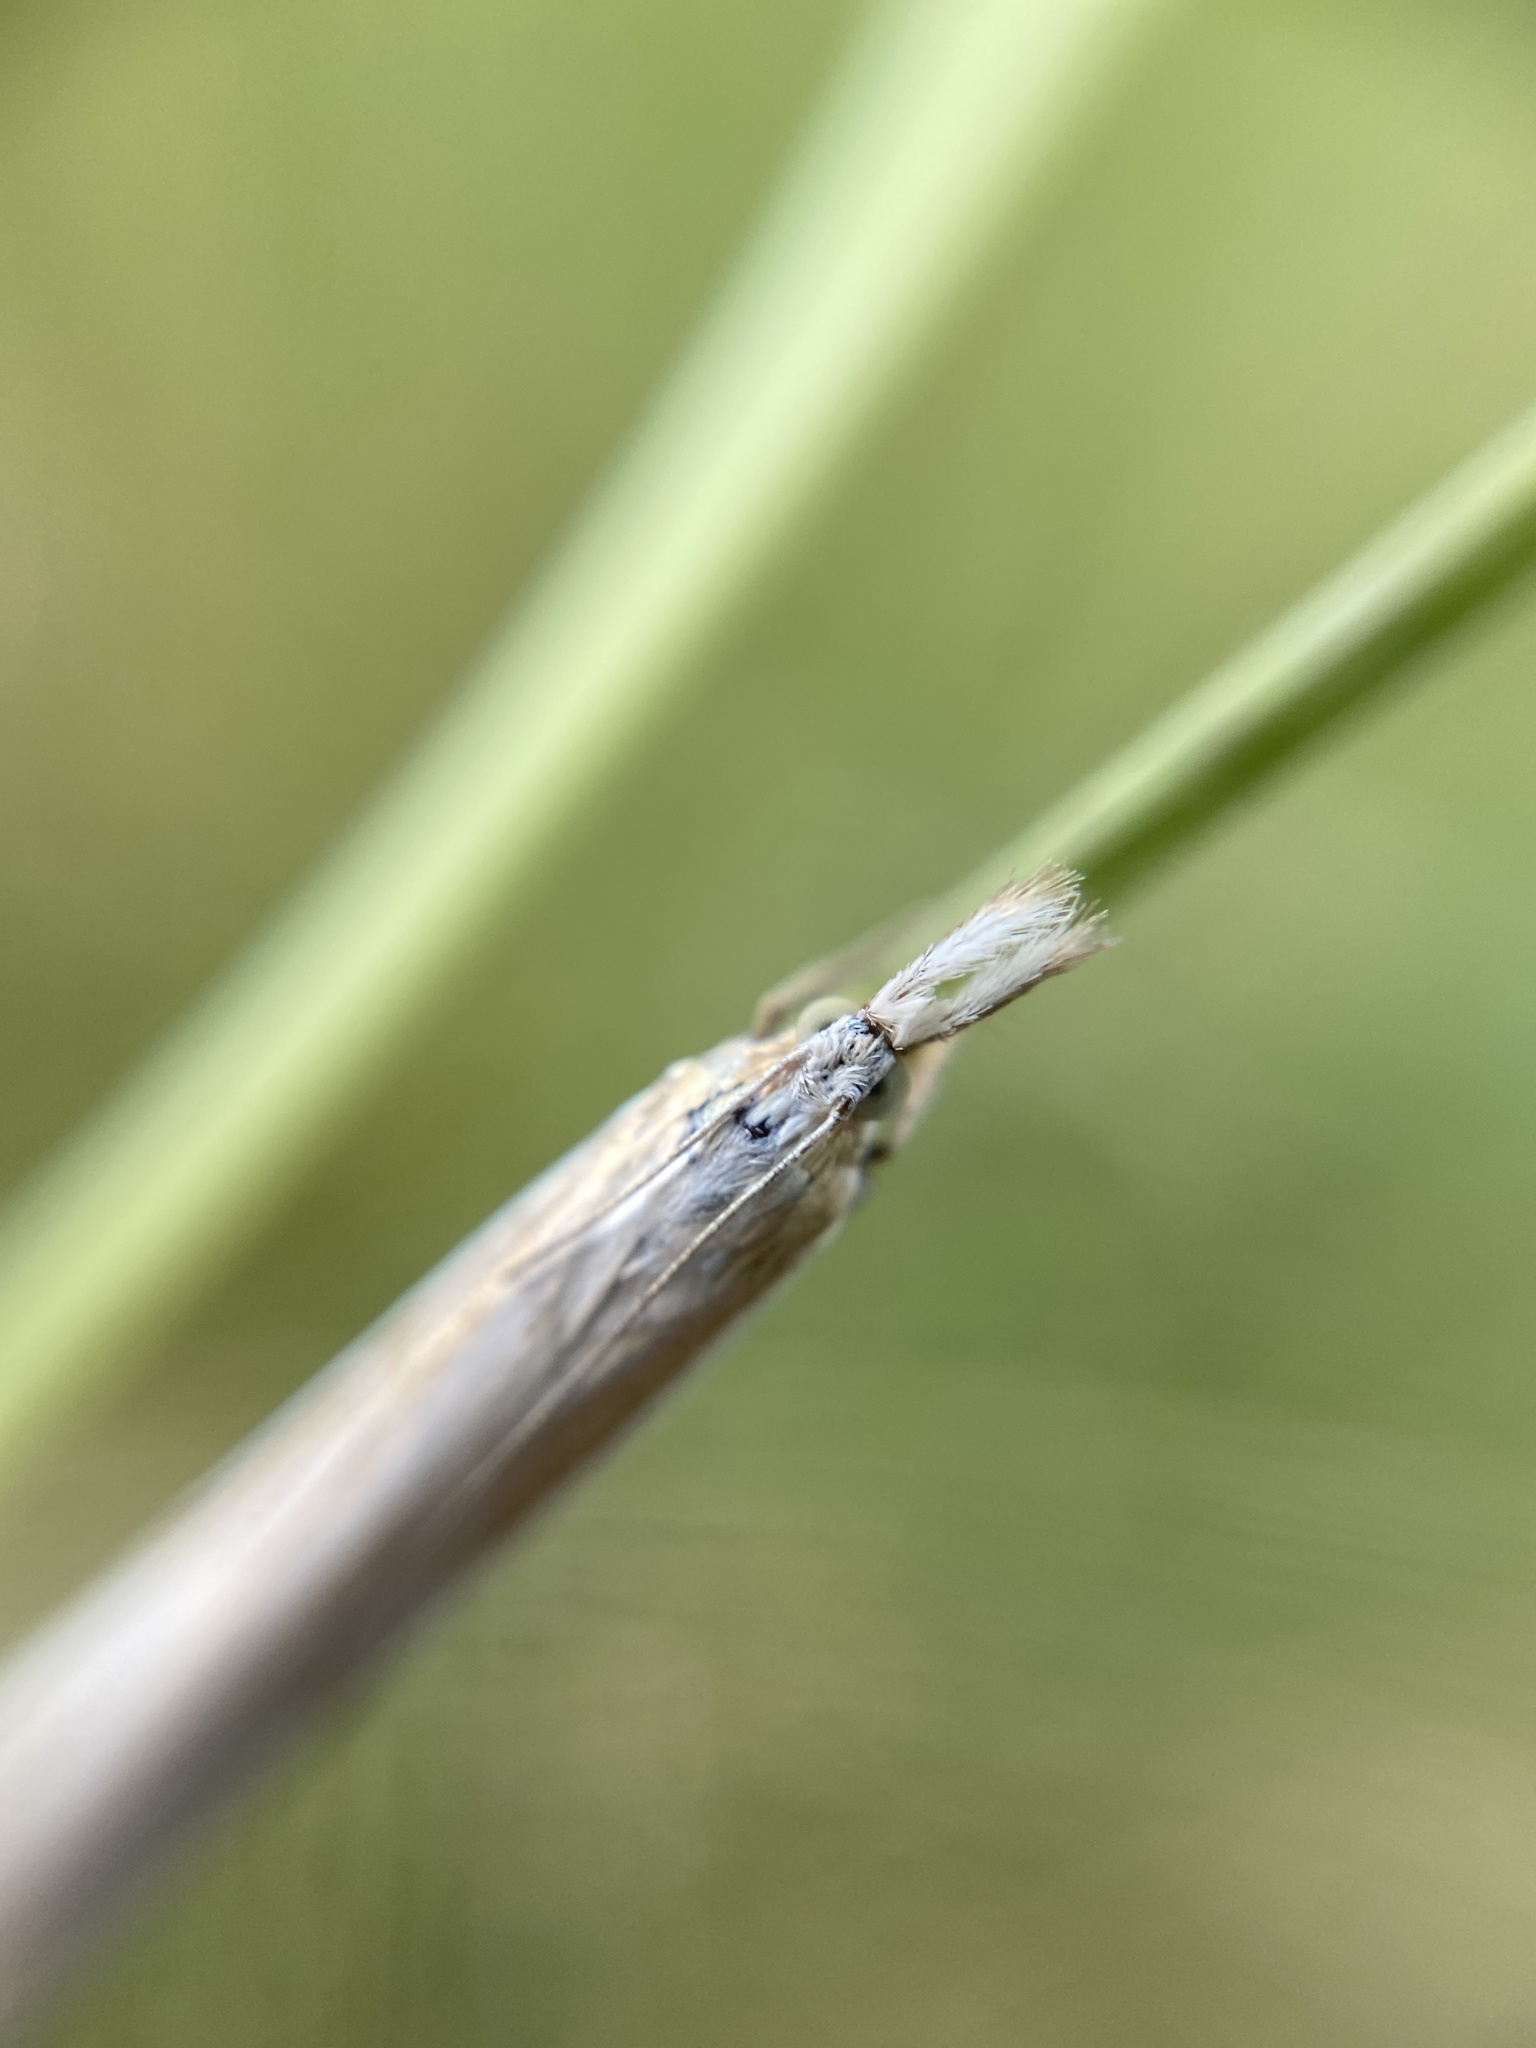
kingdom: Animalia
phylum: Arthropoda
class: Insecta
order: Lepidoptera
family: Crambidae
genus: Crambus
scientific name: Crambus pascuella
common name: Inlaid grass-veneer
